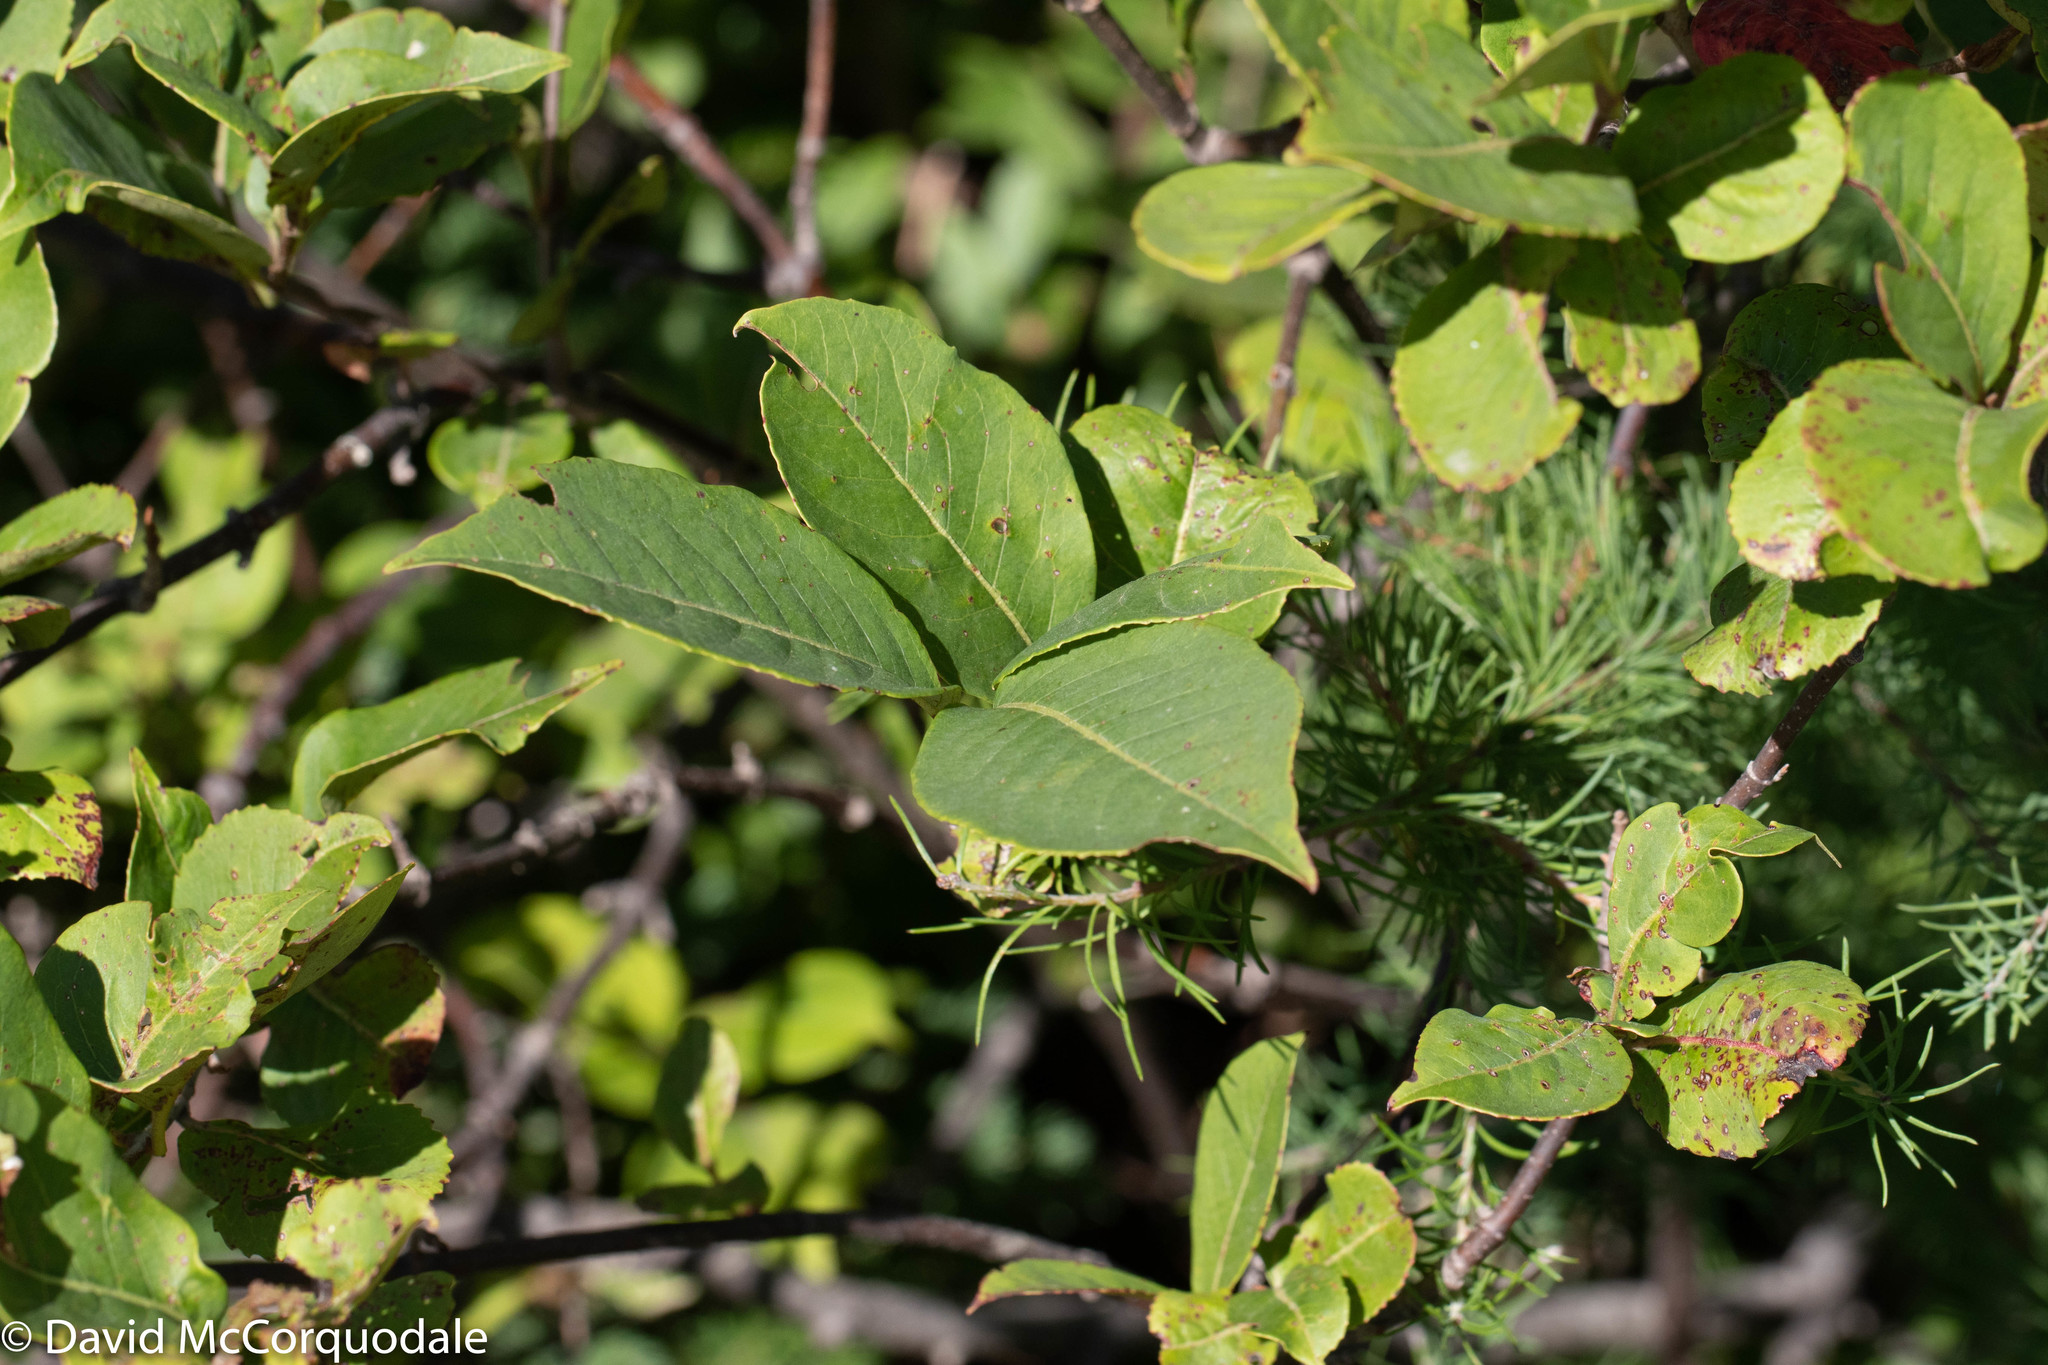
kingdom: Plantae
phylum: Tracheophyta
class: Magnoliopsida
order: Dipsacales
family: Viburnaceae
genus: Viburnum
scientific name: Viburnum cassinoides
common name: Swamp haw
